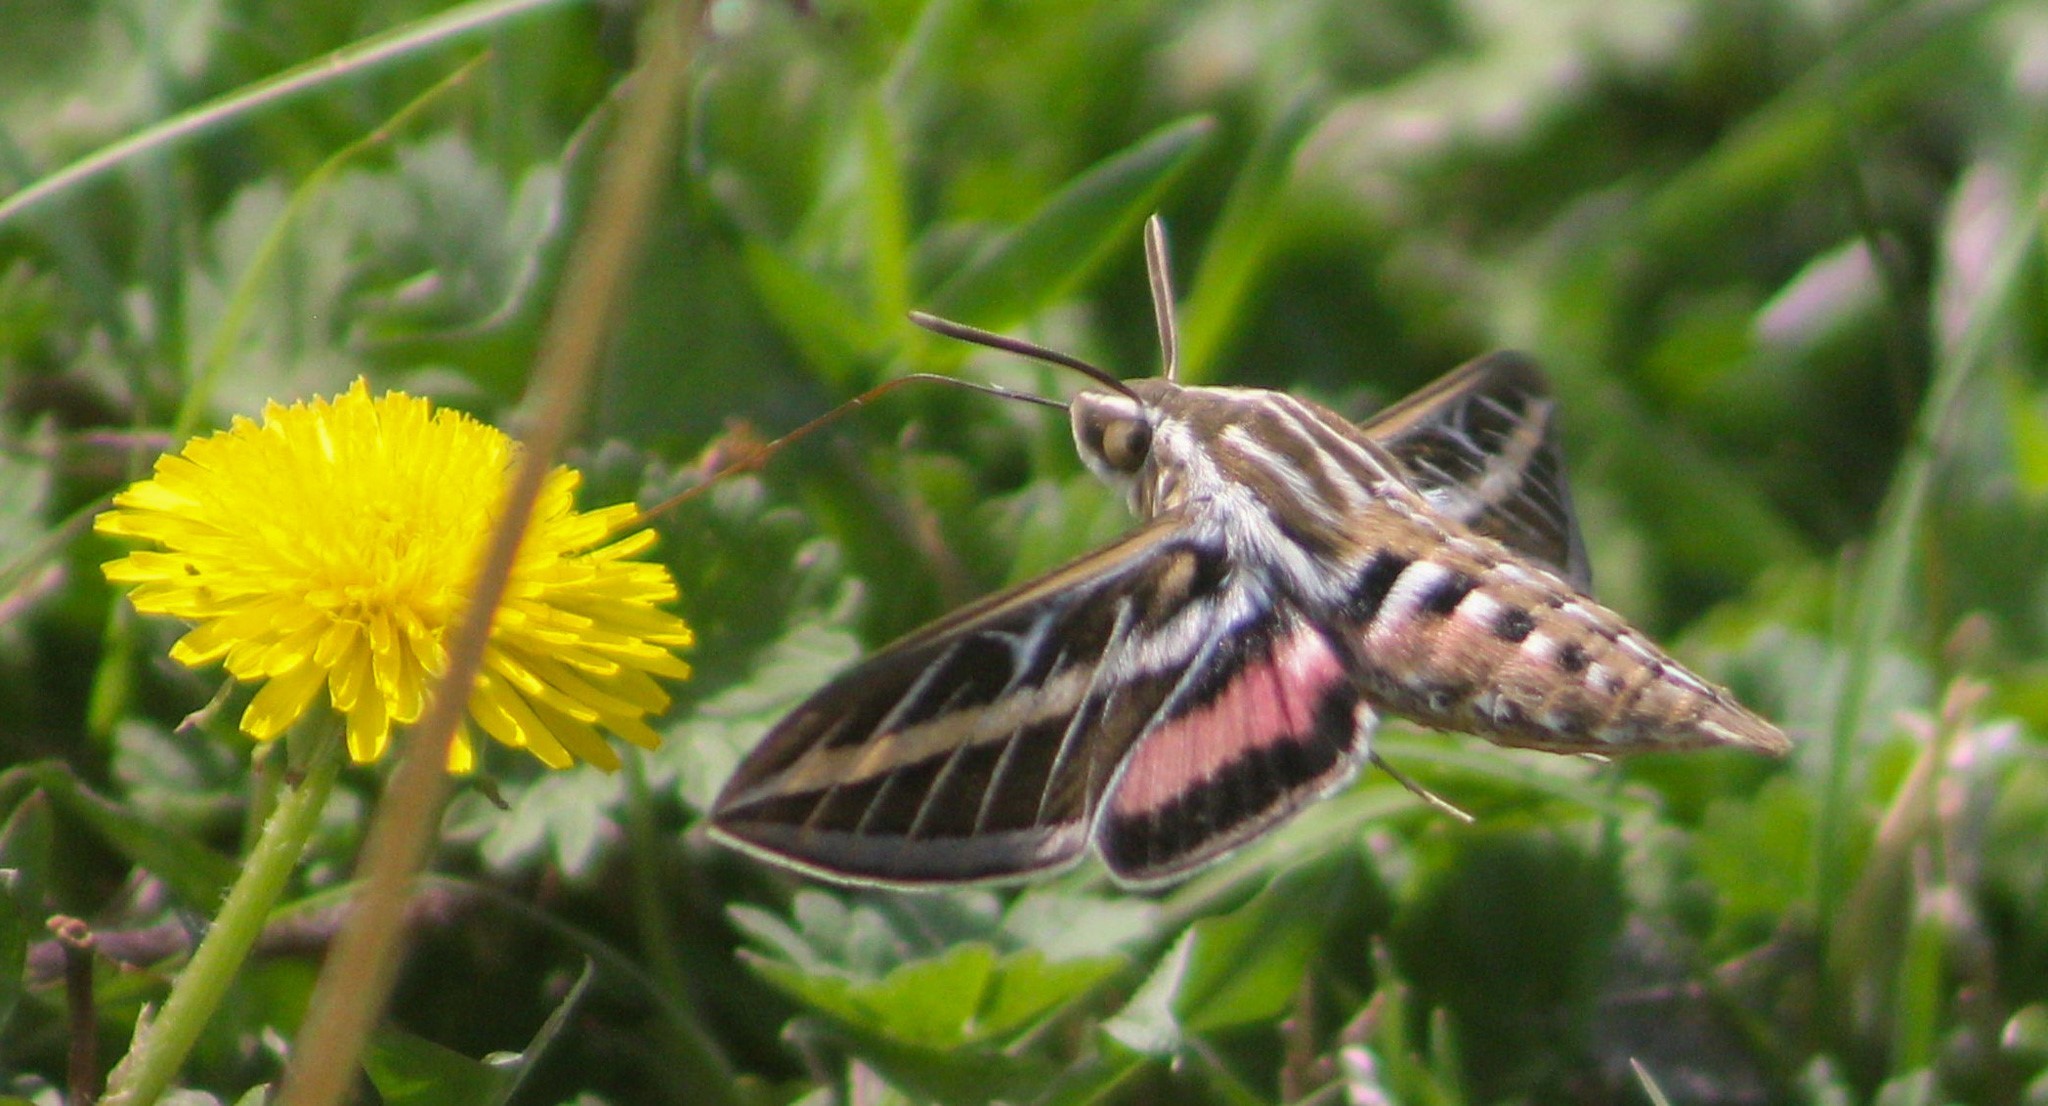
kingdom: Animalia
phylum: Arthropoda
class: Insecta
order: Lepidoptera
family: Sphingidae
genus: Hyles
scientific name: Hyles lineata
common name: White-lined sphinx
